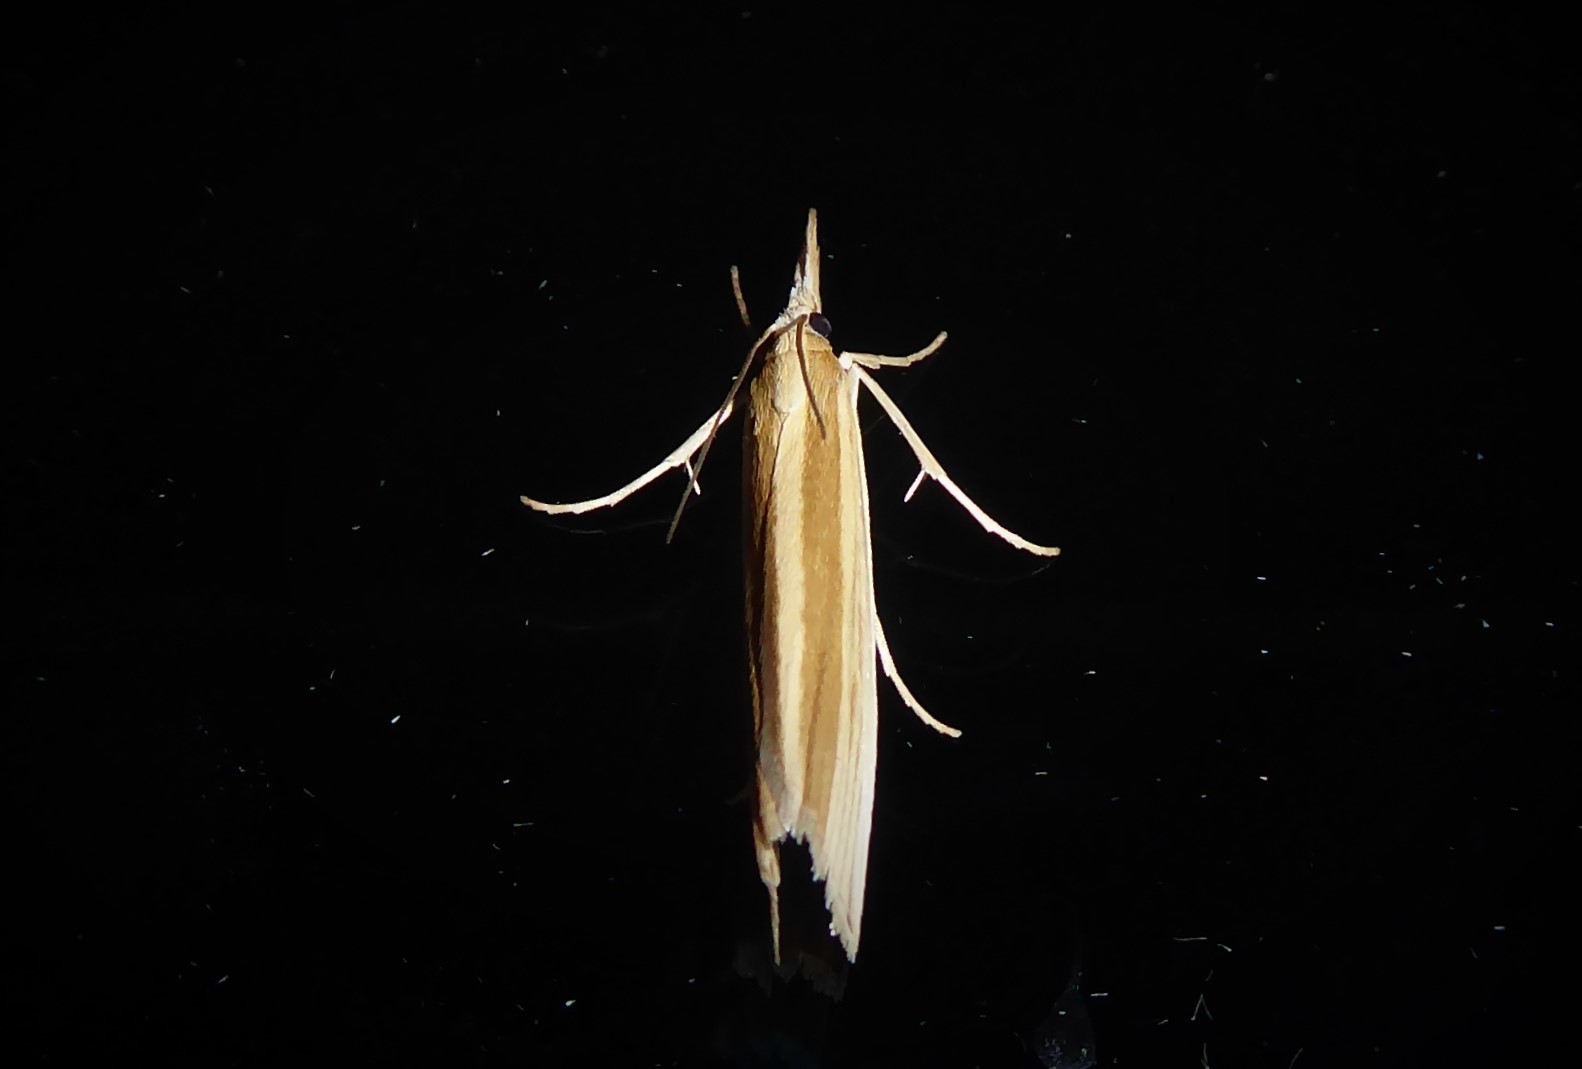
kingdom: Animalia
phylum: Arthropoda
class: Insecta
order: Lepidoptera
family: Crambidae
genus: Orocrambus
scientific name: Orocrambus angustipennis
